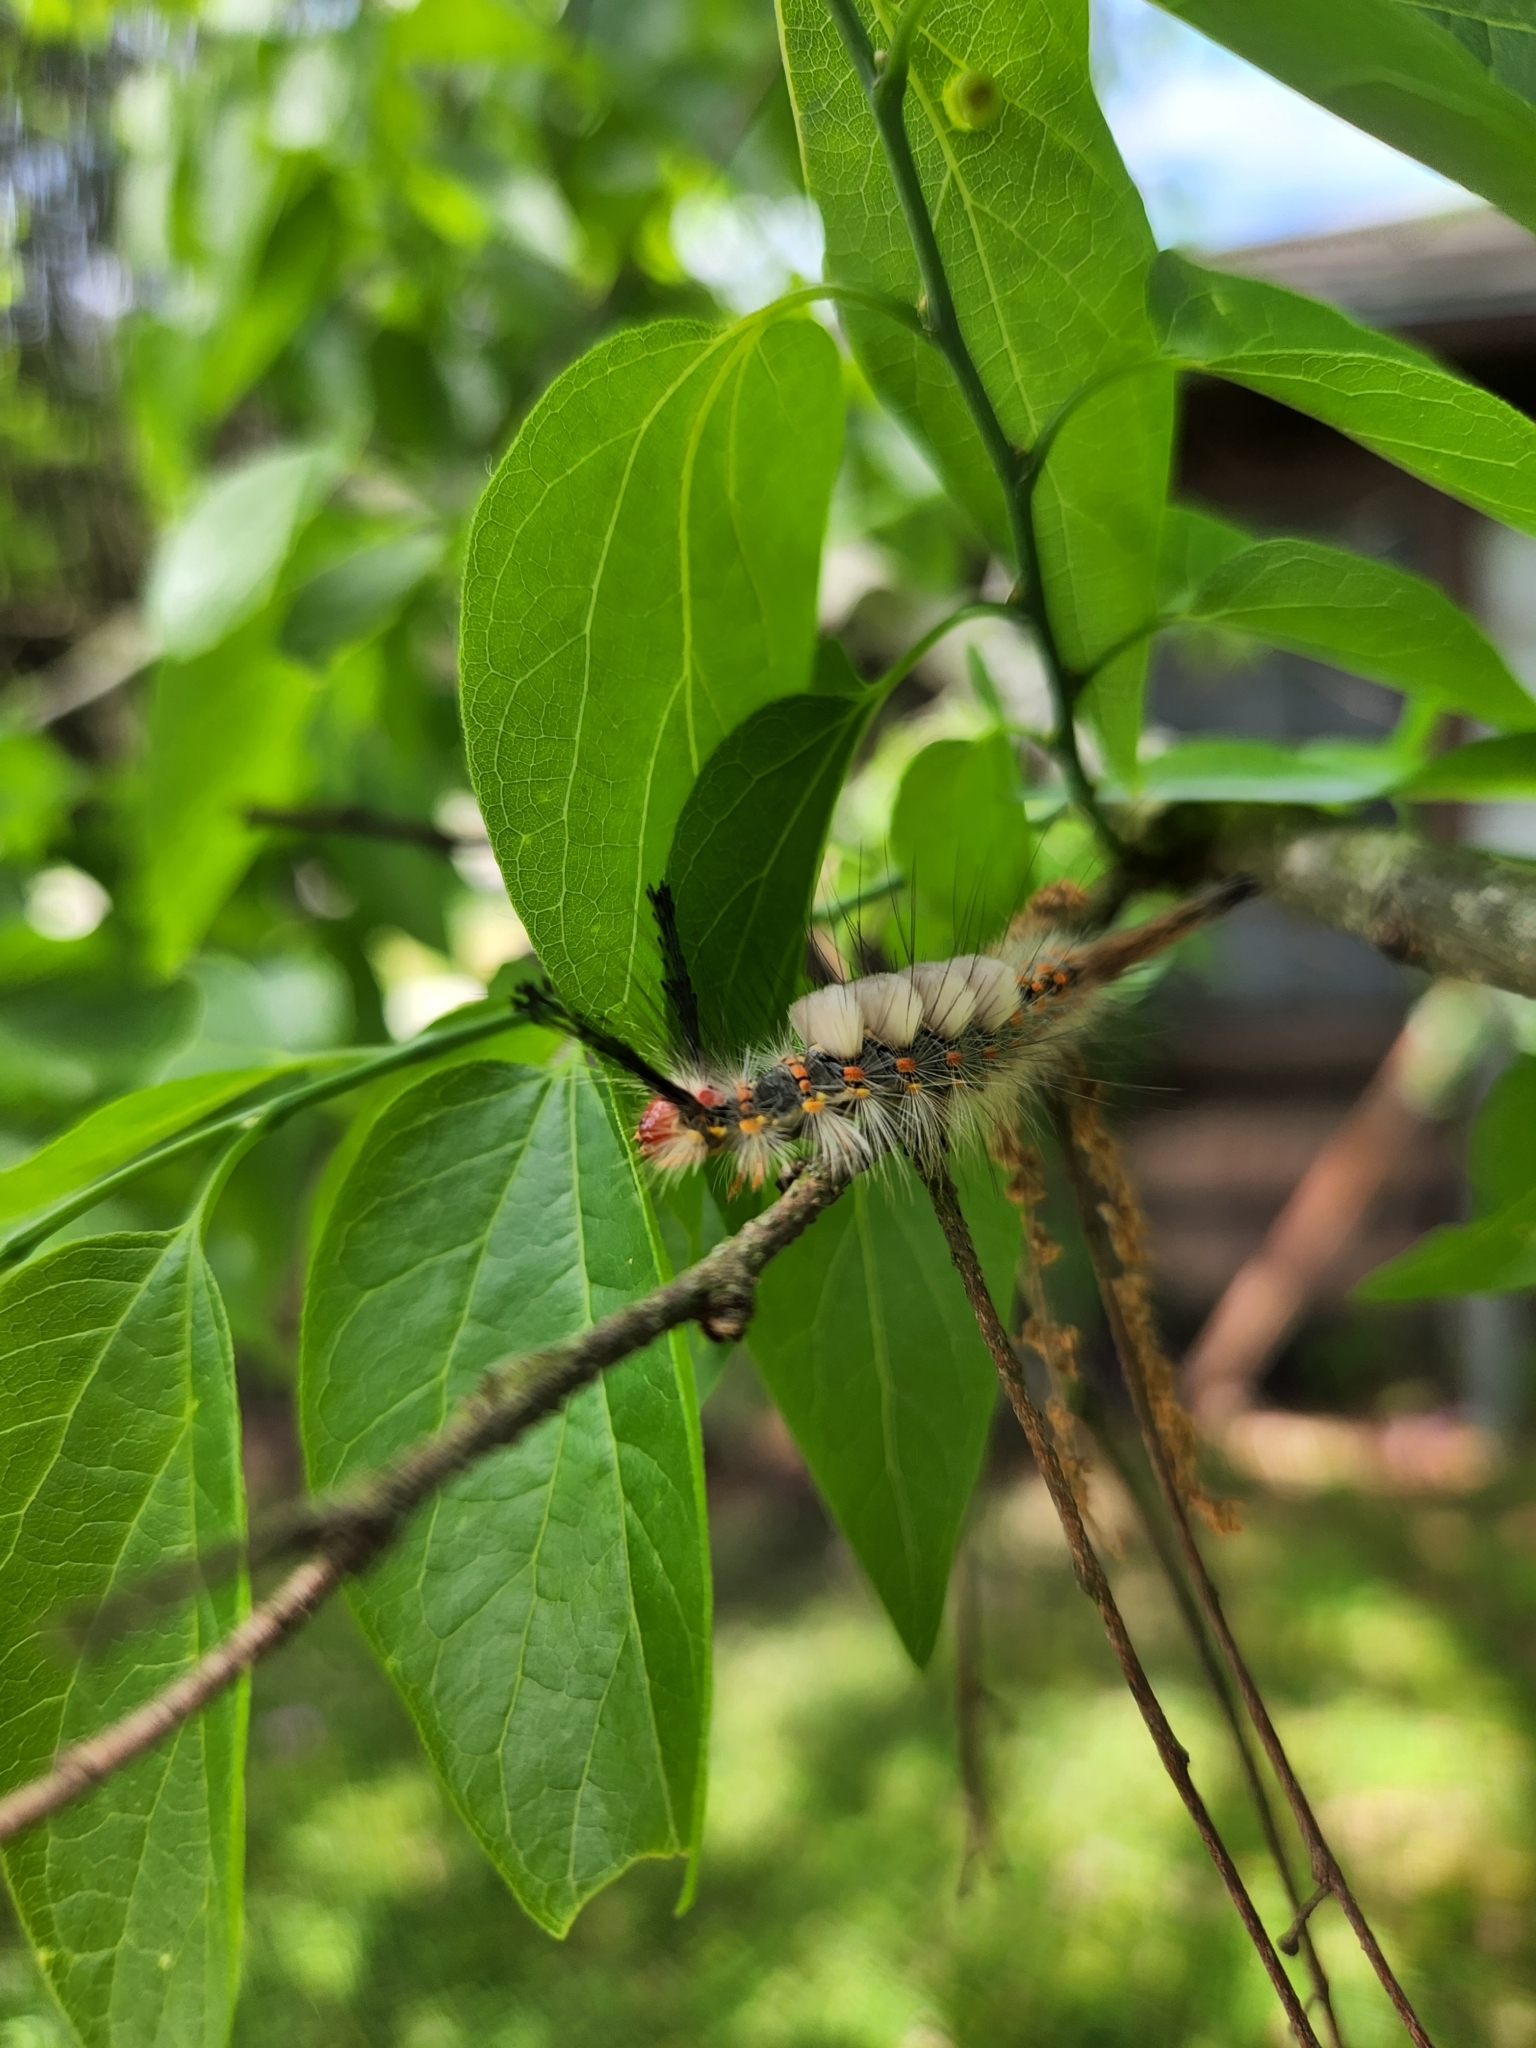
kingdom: Animalia
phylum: Arthropoda
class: Insecta
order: Lepidoptera
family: Erebidae
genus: Orgyia
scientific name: Orgyia detrita
